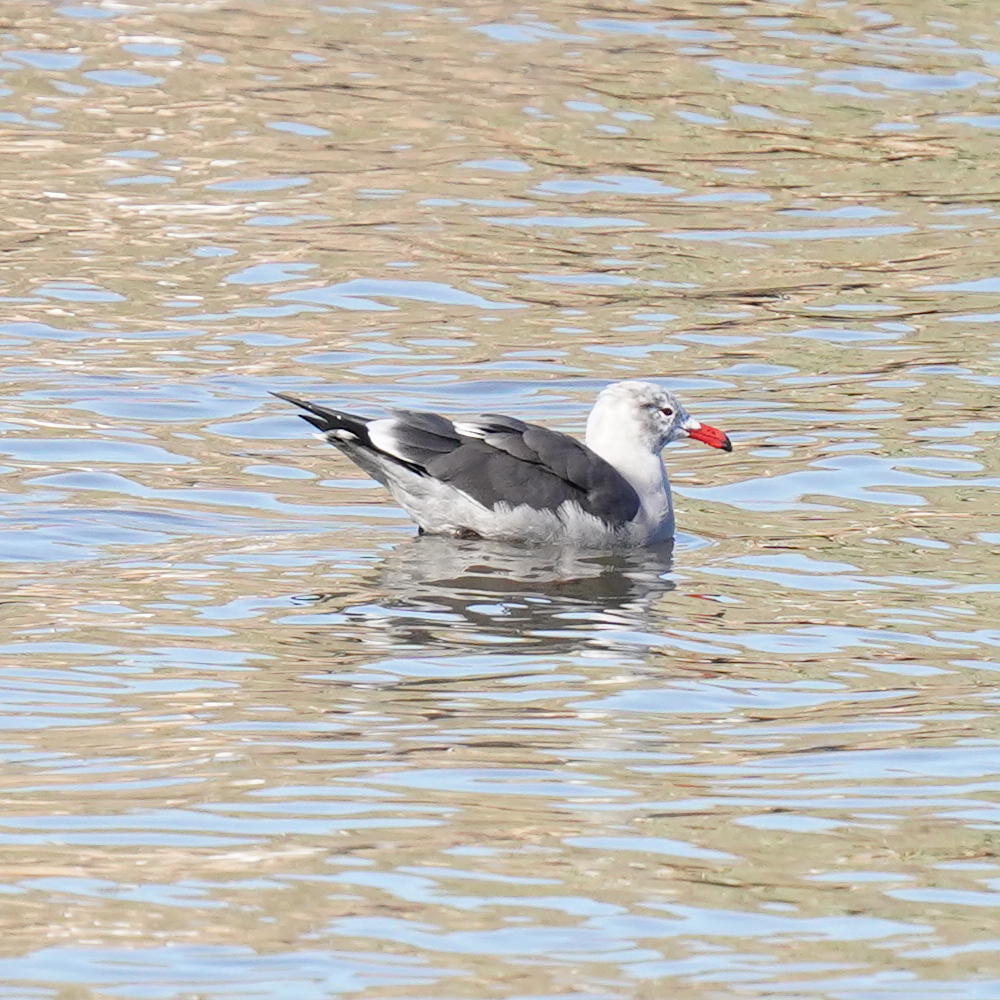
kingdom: Animalia
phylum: Chordata
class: Aves
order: Charadriiformes
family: Laridae
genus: Larus
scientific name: Larus heermanni
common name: Heermann's gull
